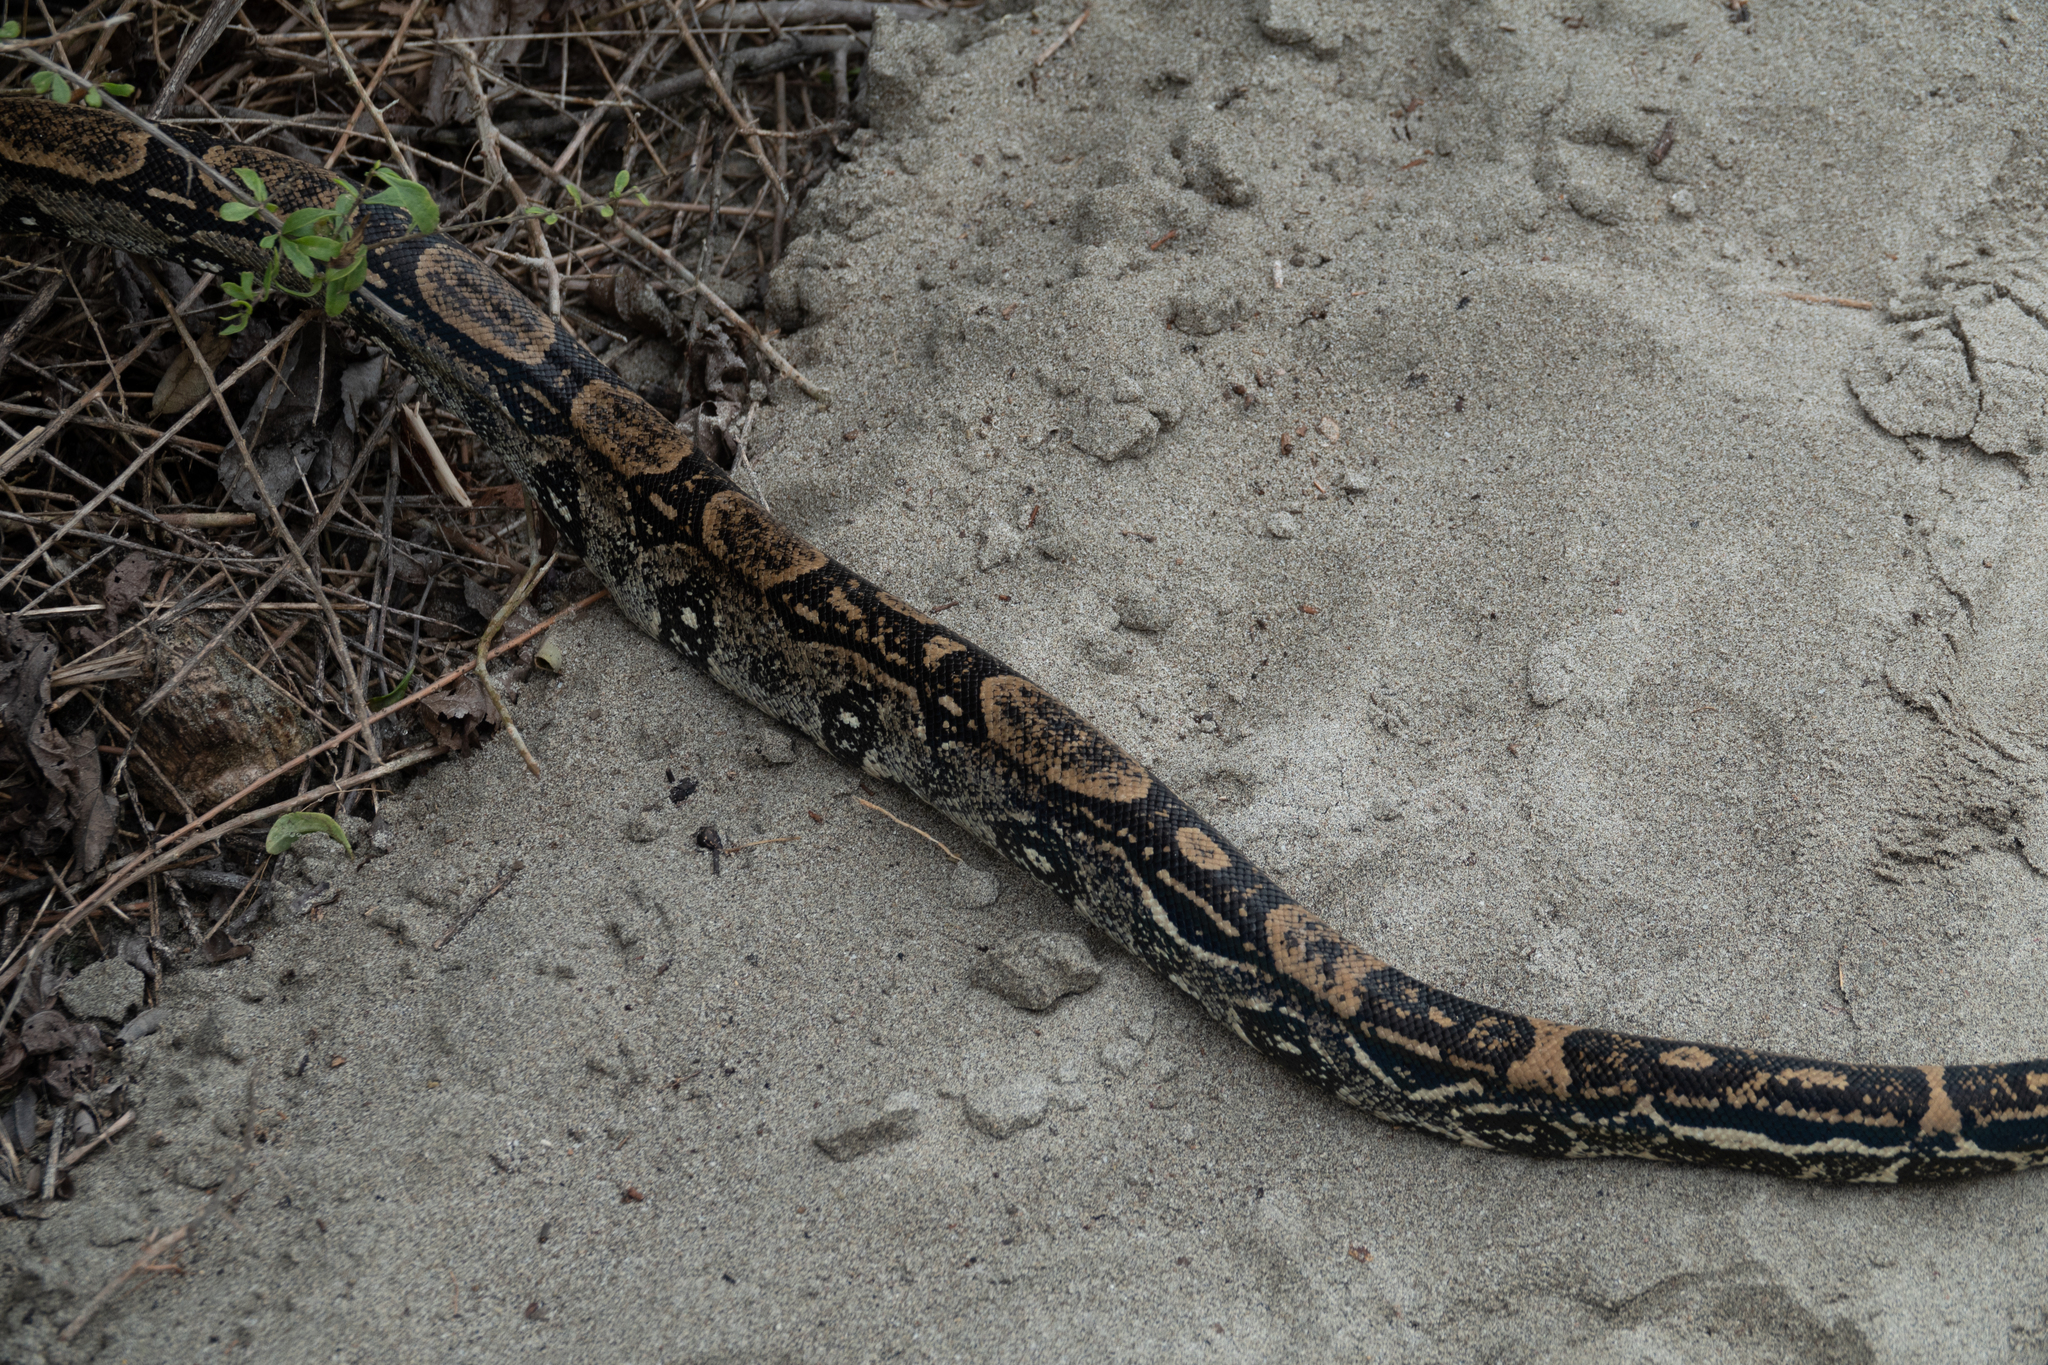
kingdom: Animalia
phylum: Chordata
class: Squamata
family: Boidae
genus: Boa
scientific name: Boa imperator
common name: Central american boa
